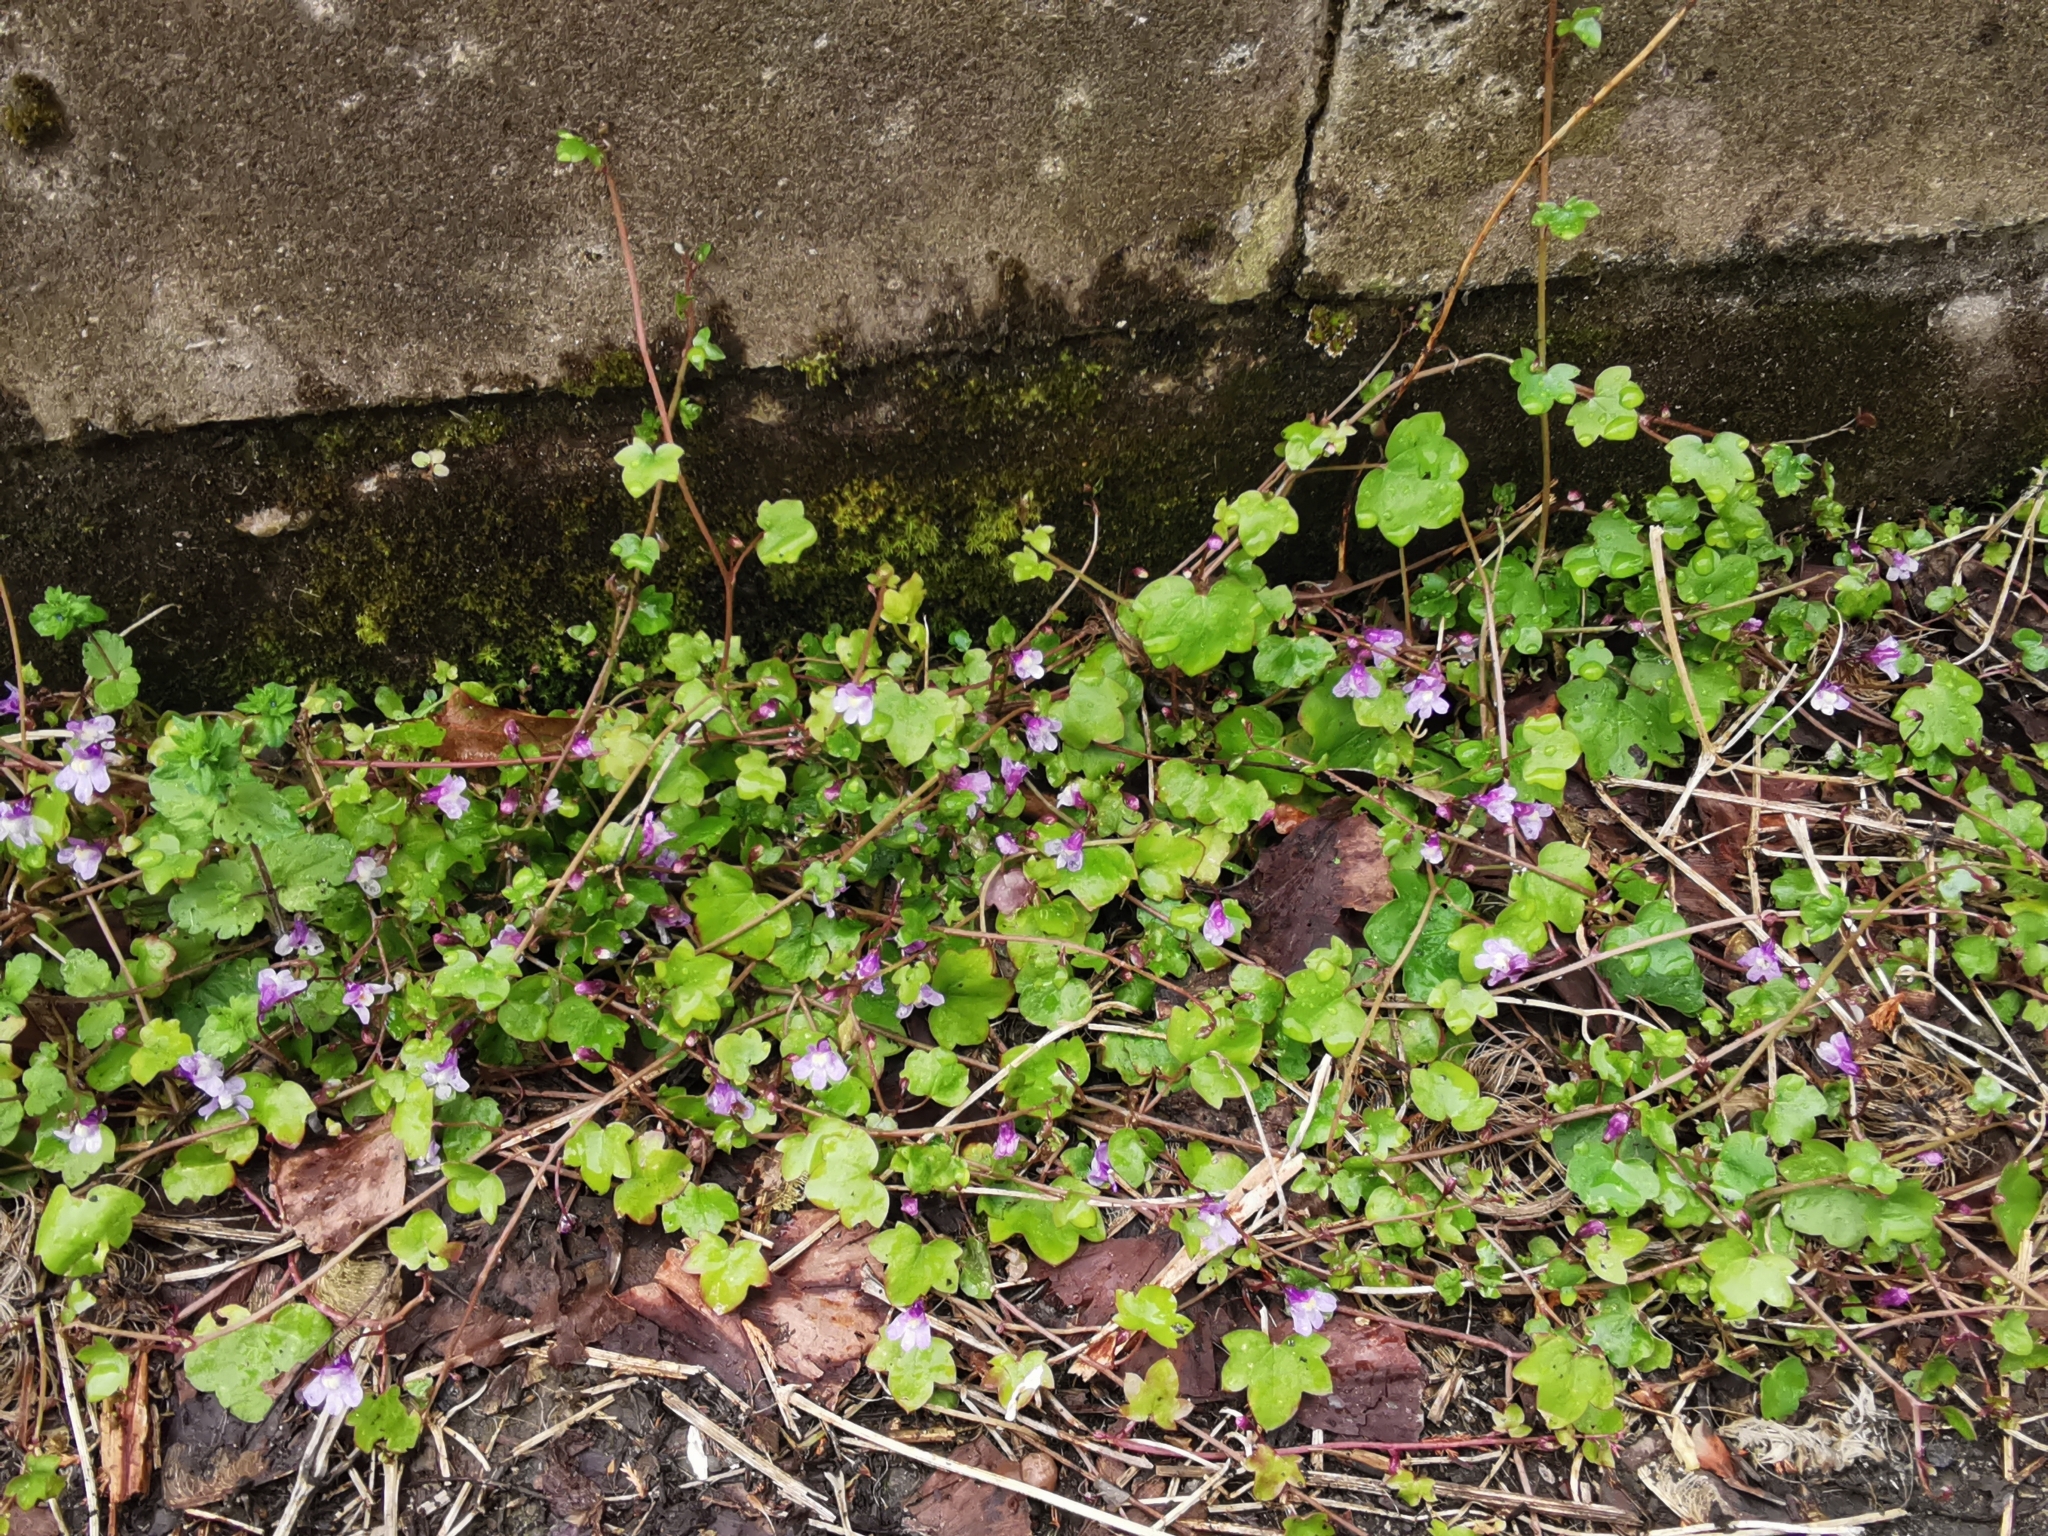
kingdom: Plantae
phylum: Tracheophyta
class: Magnoliopsida
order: Lamiales
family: Plantaginaceae
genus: Cymbalaria
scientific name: Cymbalaria muralis
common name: Ivy-leaved toadflax
